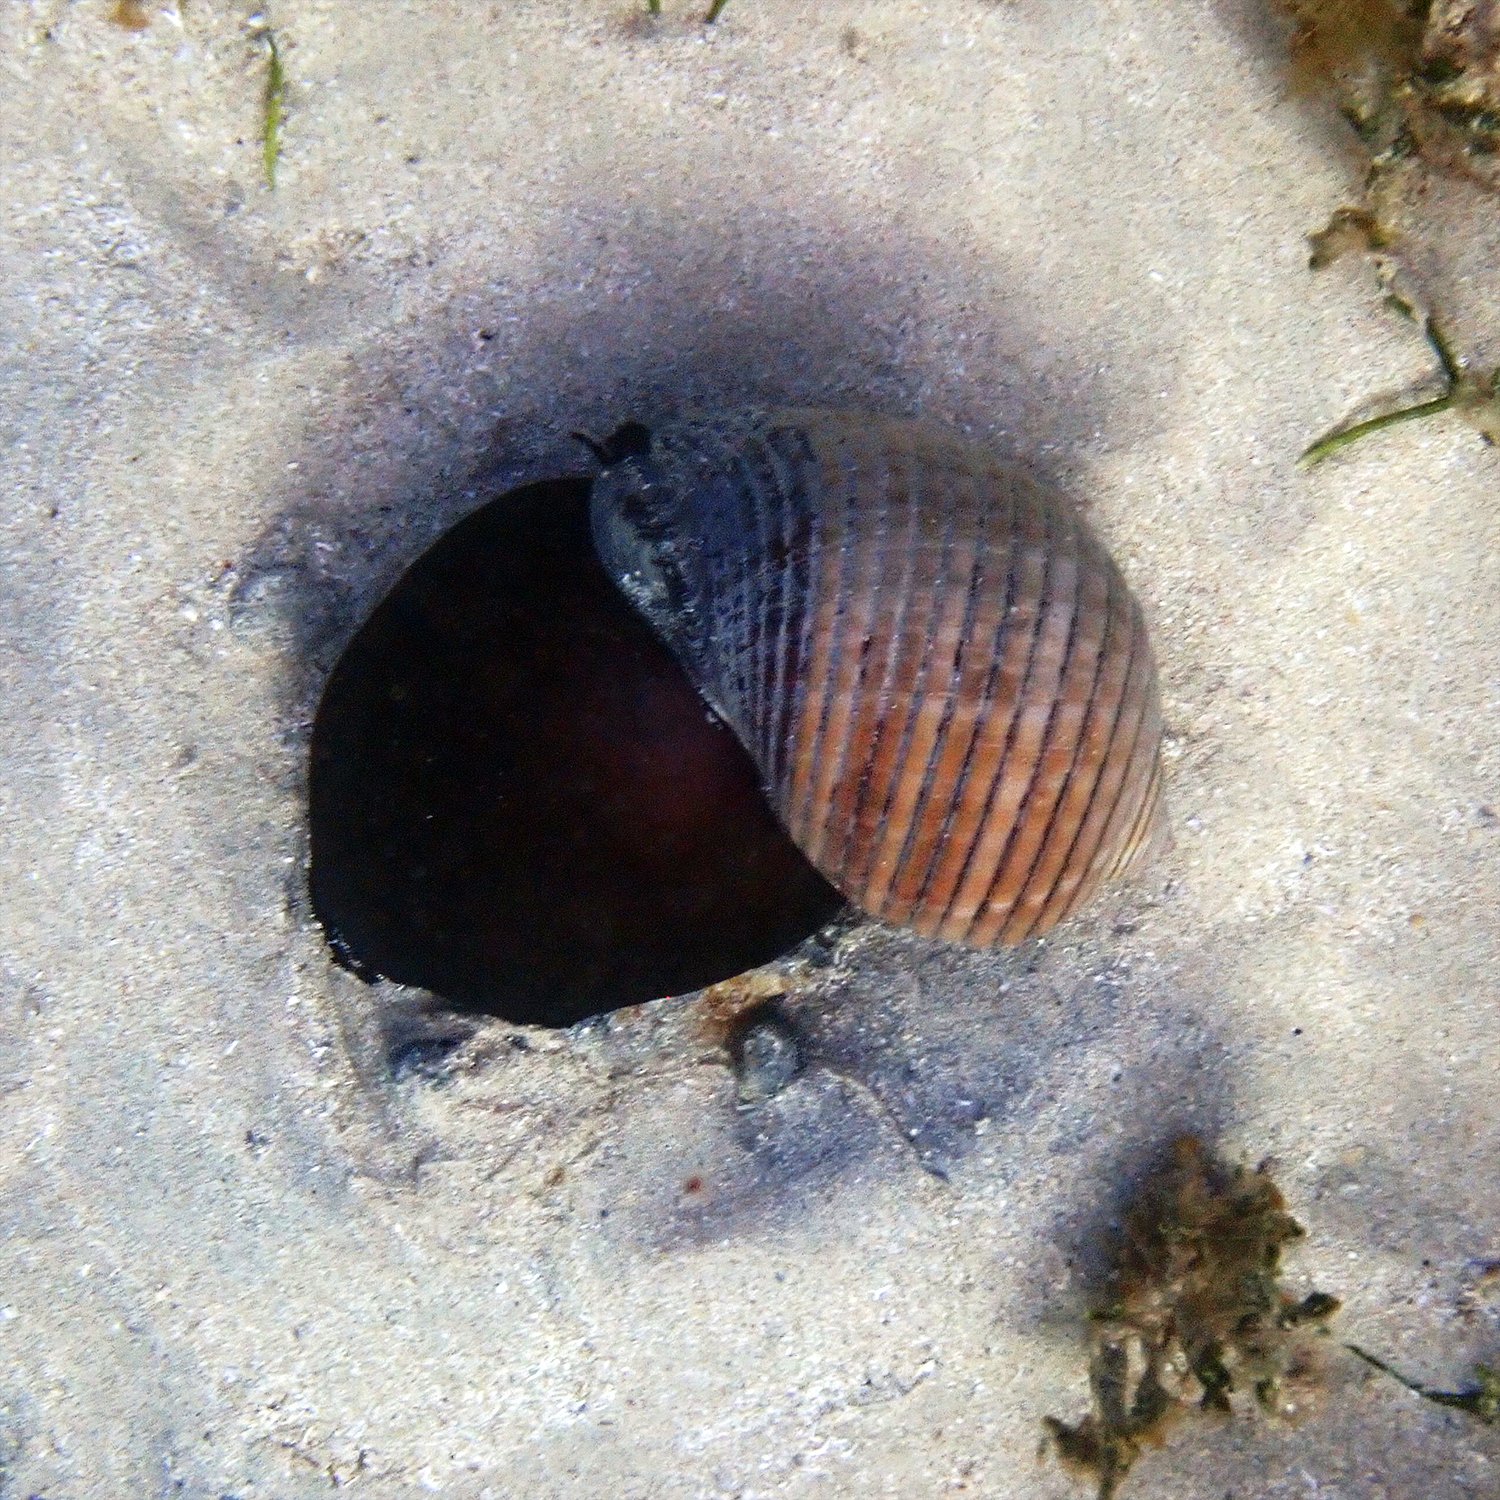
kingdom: Animalia
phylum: Mollusca
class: Gastropoda
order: Littorinimorpha
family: Tonnidae
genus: Tonna
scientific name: Tonna melanostoma
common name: Black mouthed tun
